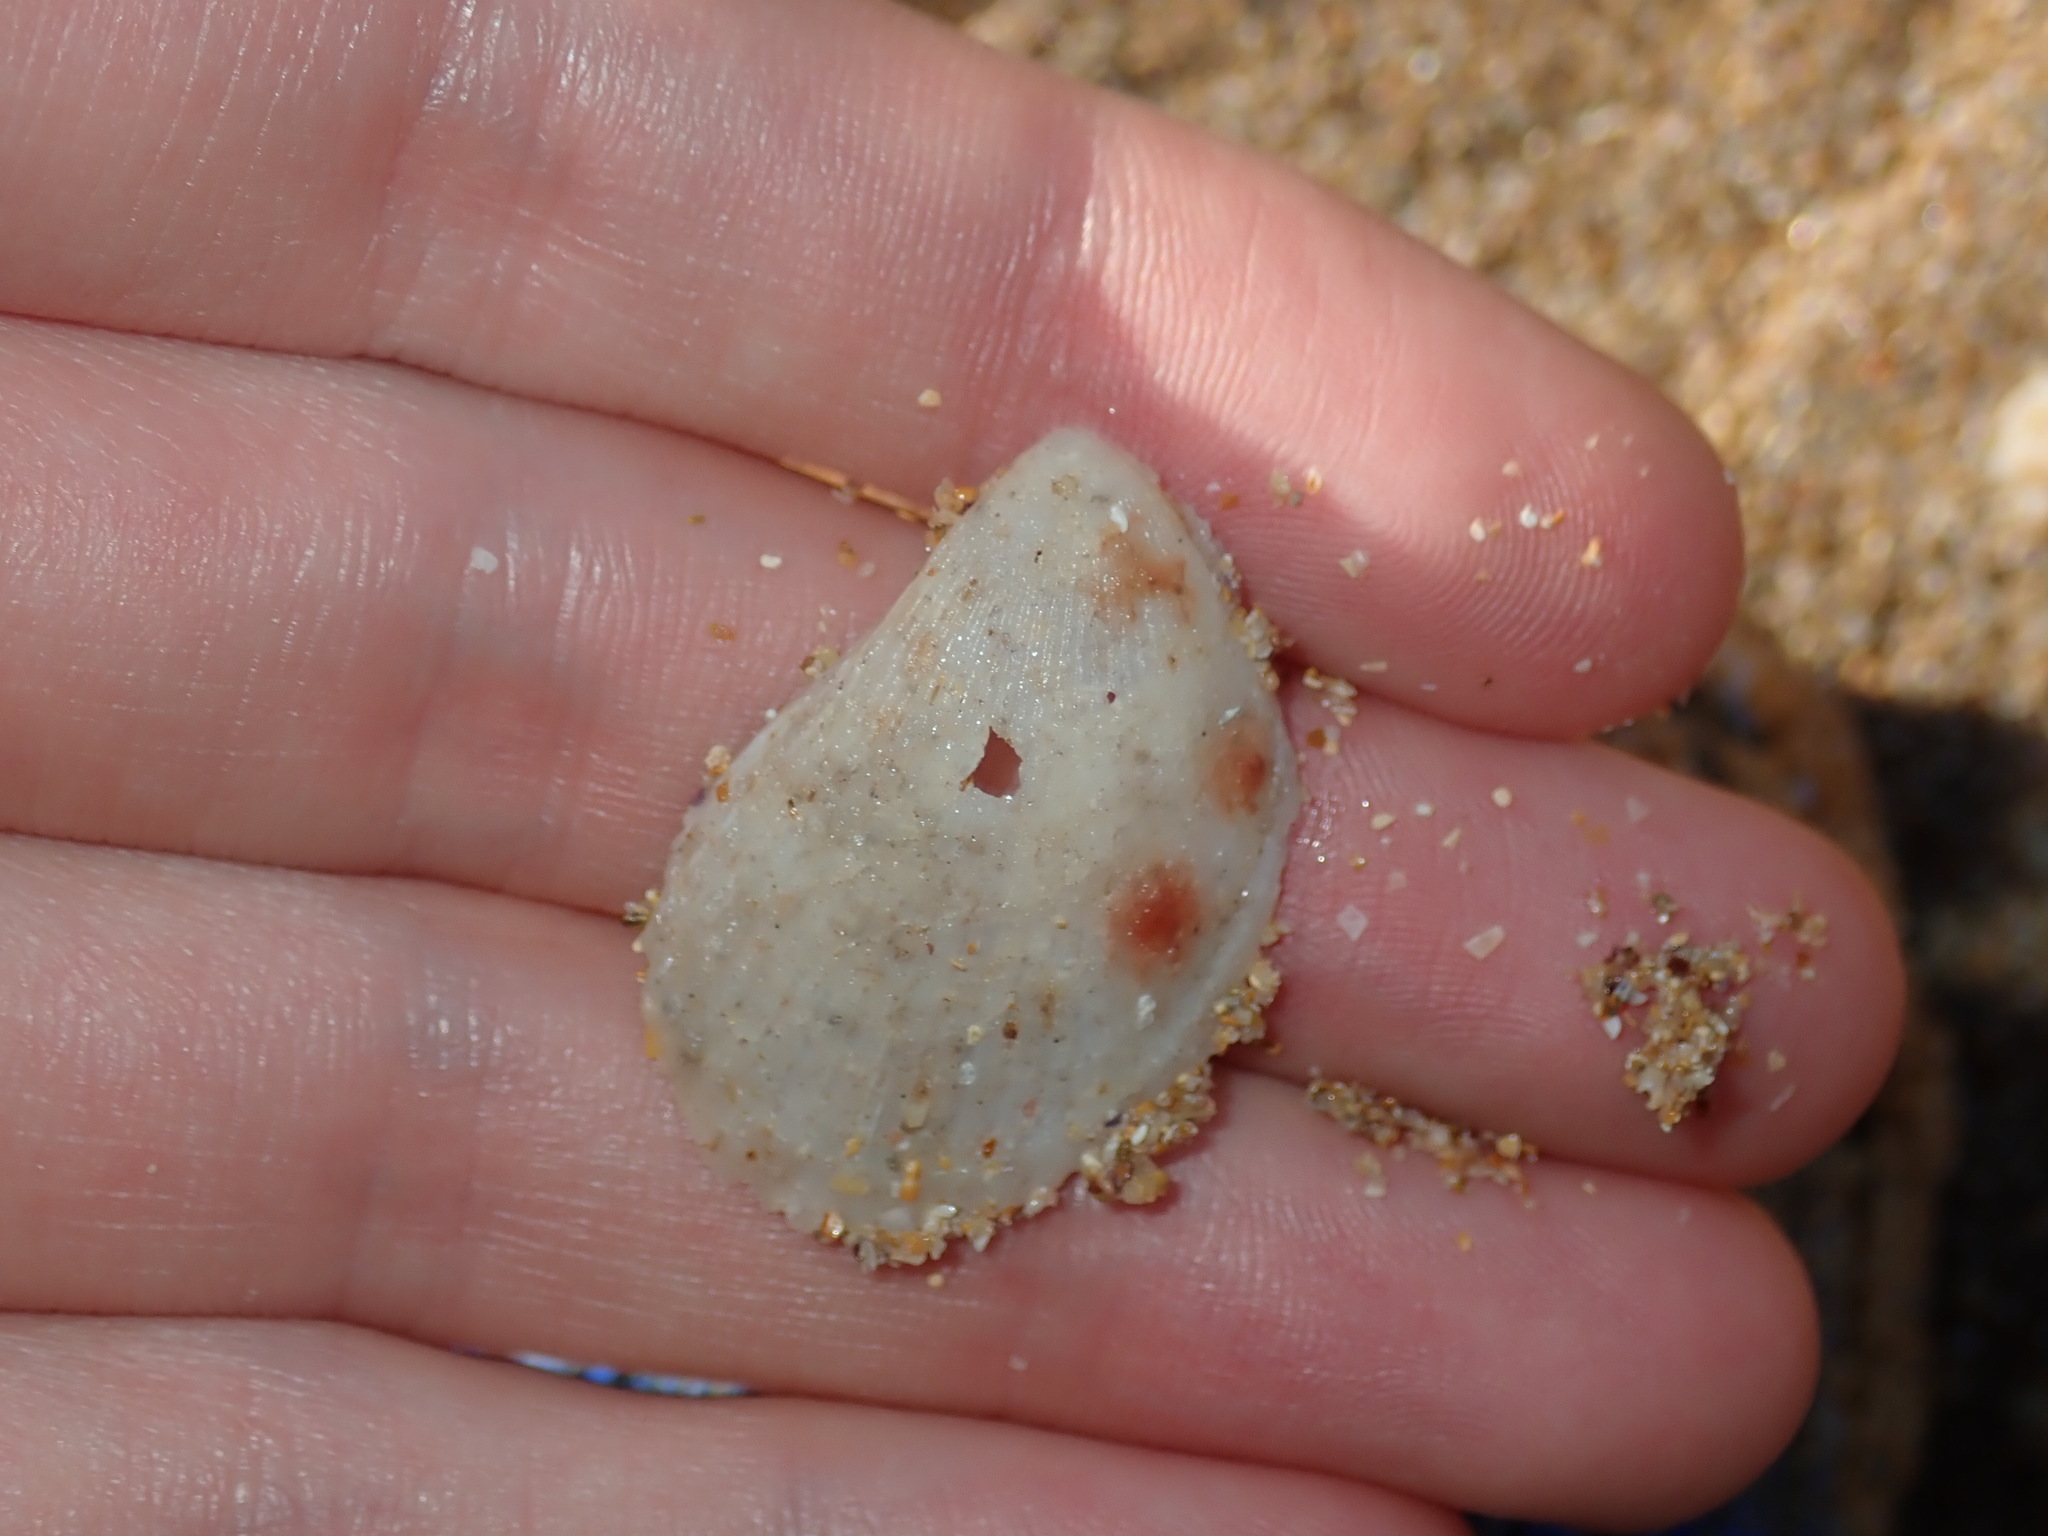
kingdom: Animalia
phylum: Mollusca
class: Bivalvia
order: Limida
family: Limidae
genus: Lima
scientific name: Lima nimbifer
